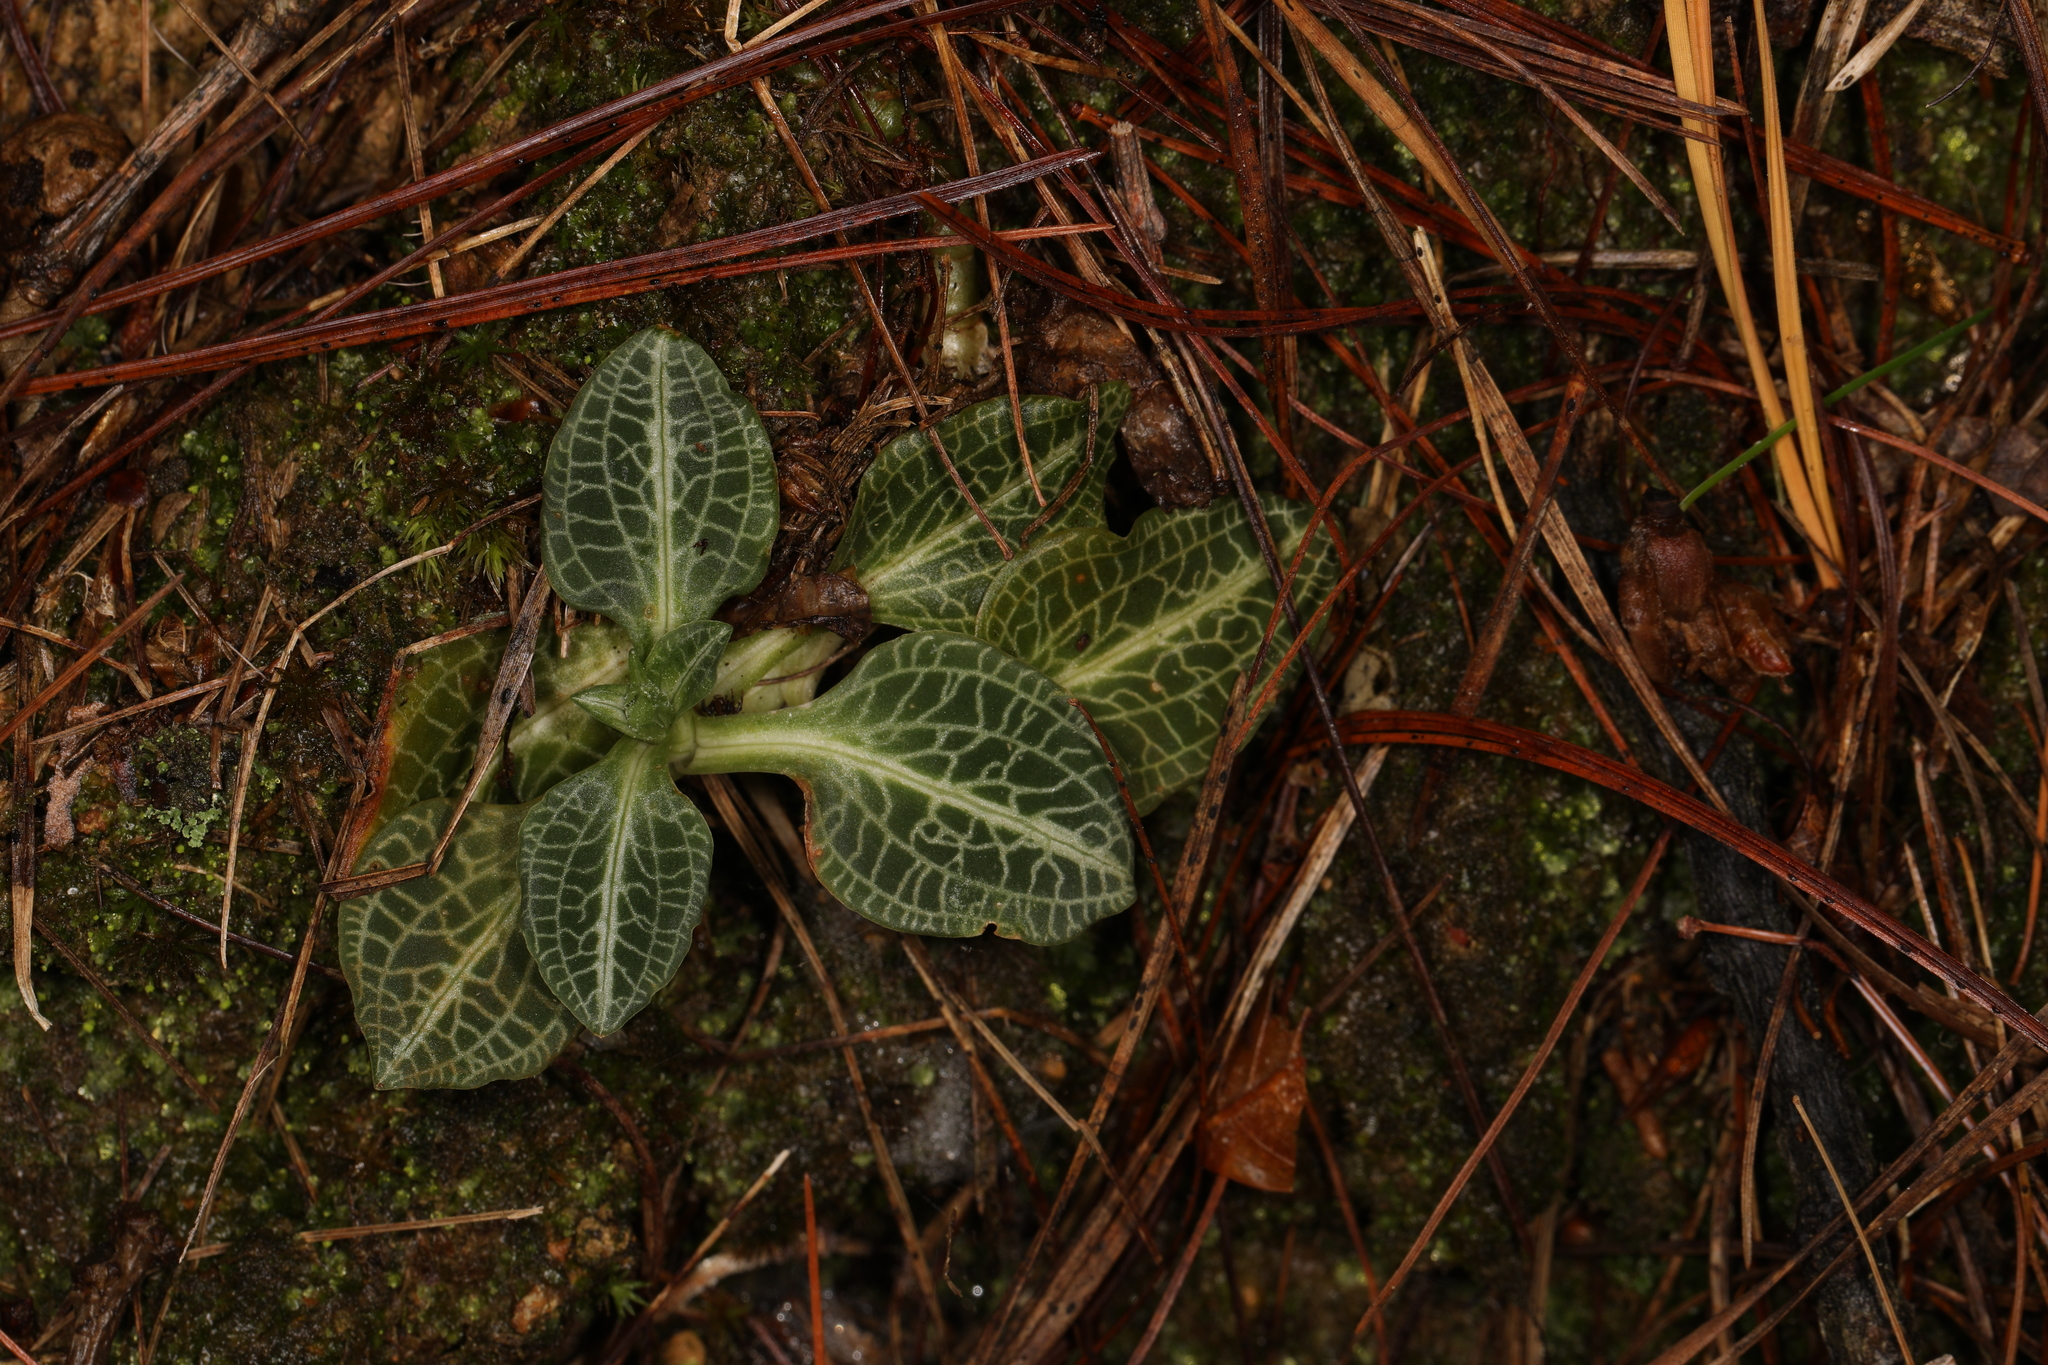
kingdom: Plantae
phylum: Tracheophyta
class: Liliopsida
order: Asparagales
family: Orchidaceae
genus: Goodyera
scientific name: Goodyera pubescens
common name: Downy rattlesnake-plantain
